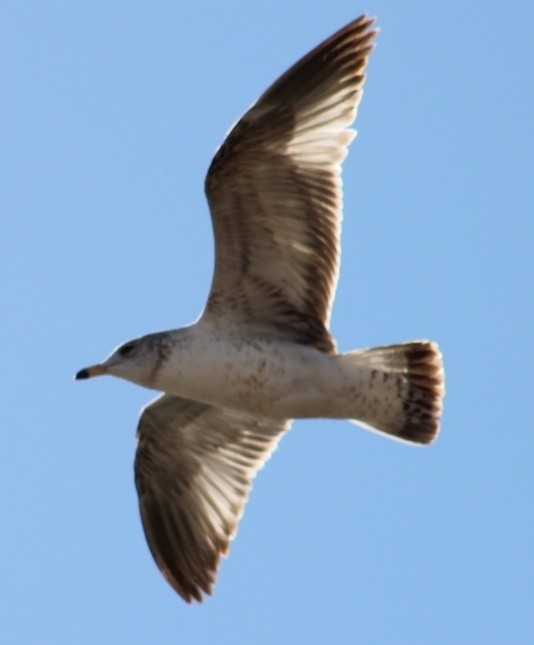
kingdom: Animalia
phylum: Chordata
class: Aves
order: Charadriiformes
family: Laridae
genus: Larus
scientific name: Larus californicus
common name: California gull
